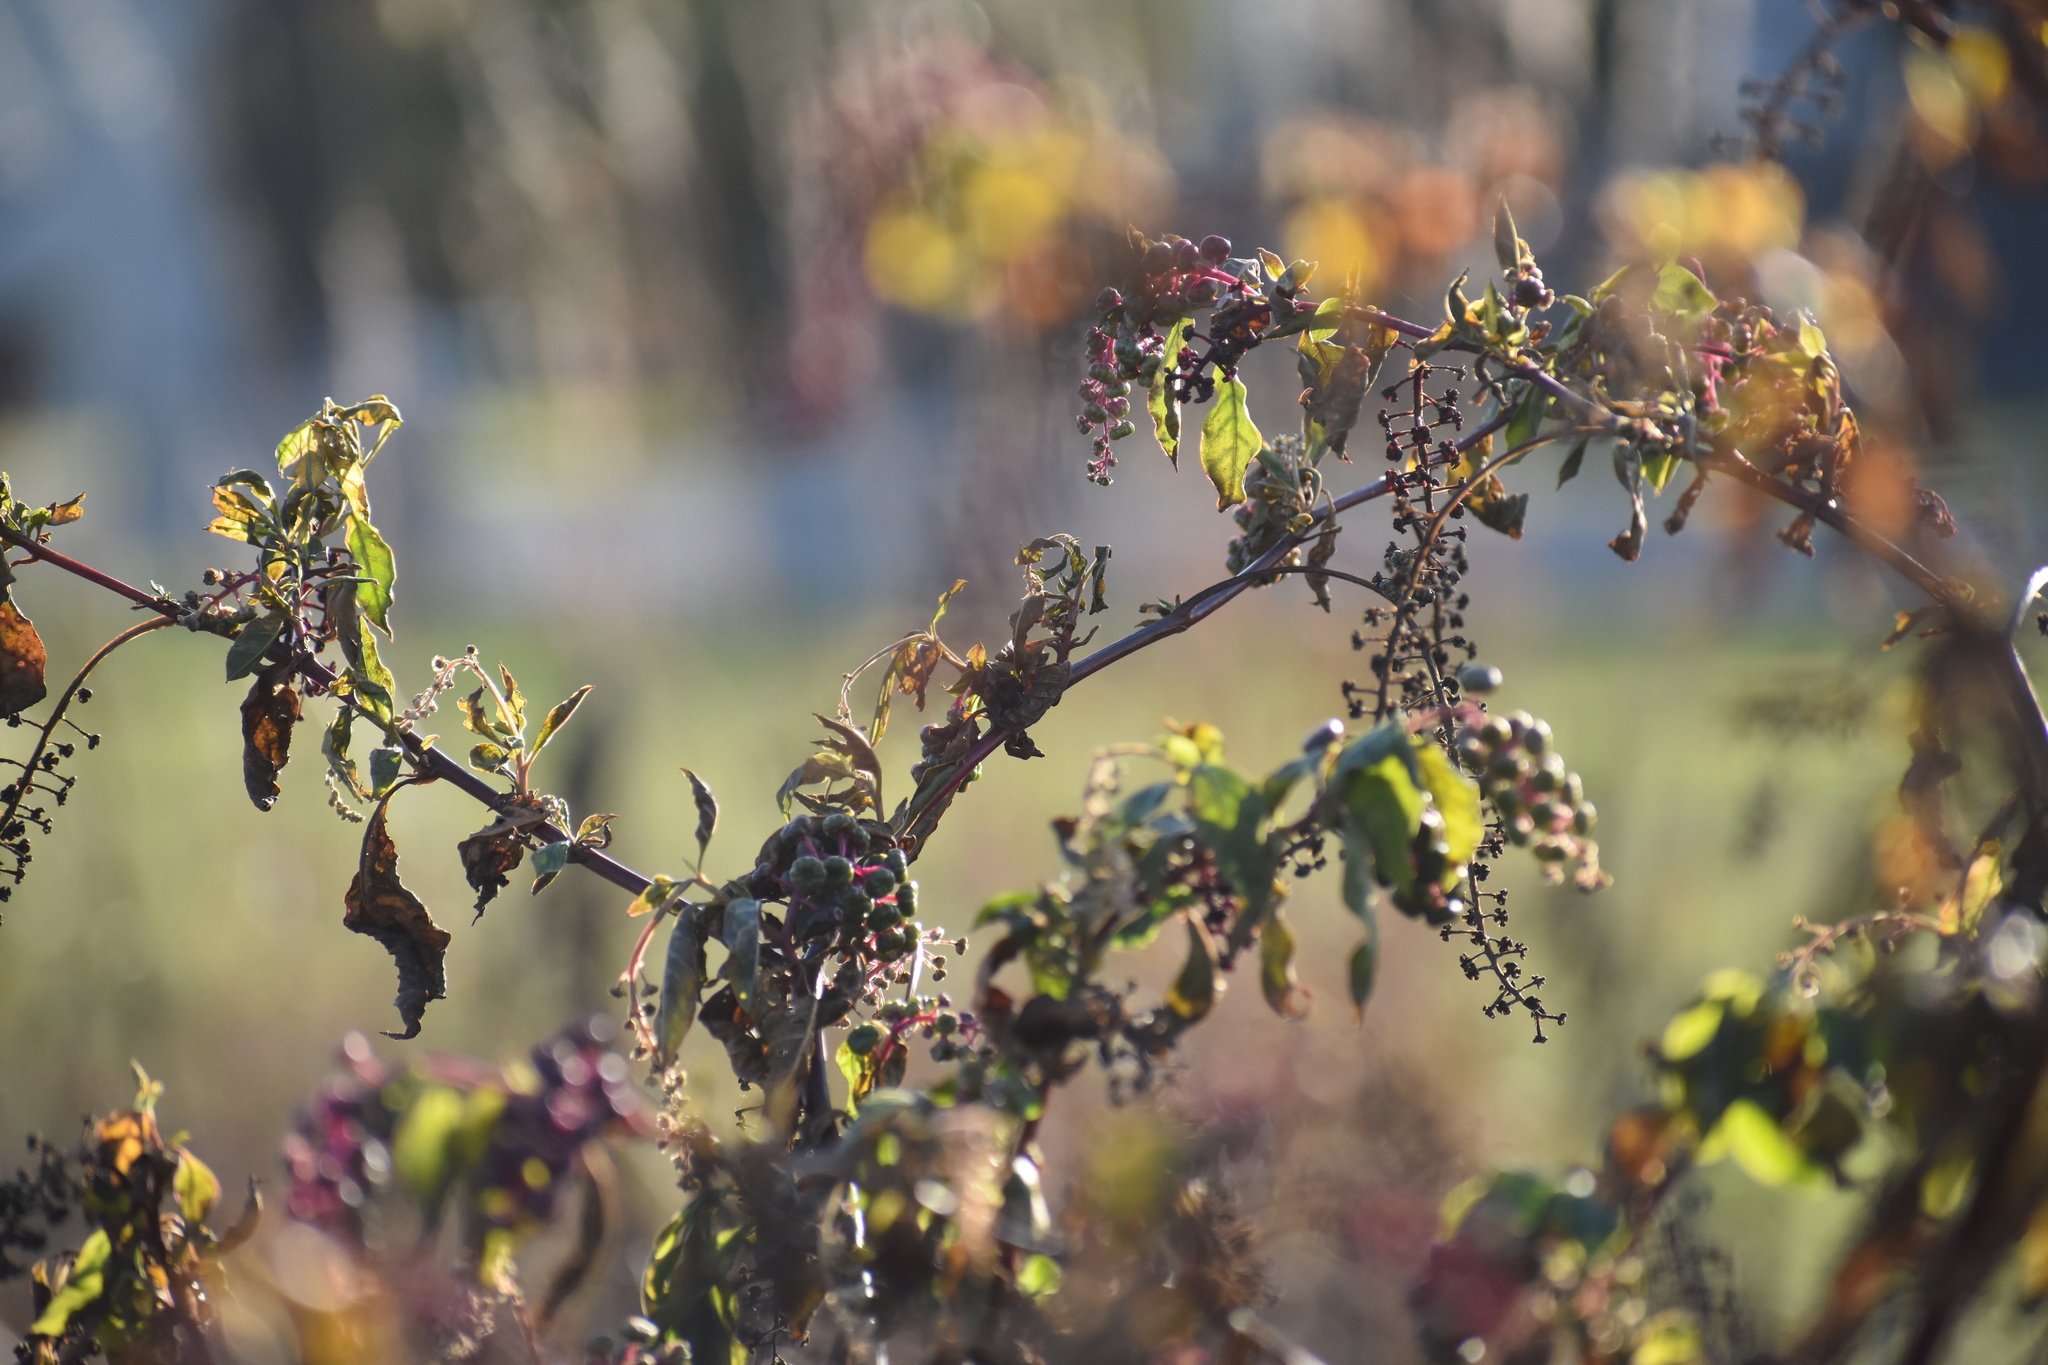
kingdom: Plantae
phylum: Tracheophyta
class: Magnoliopsida
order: Caryophyllales
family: Phytolaccaceae
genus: Phytolacca
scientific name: Phytolacca americana
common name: American pokeweed
